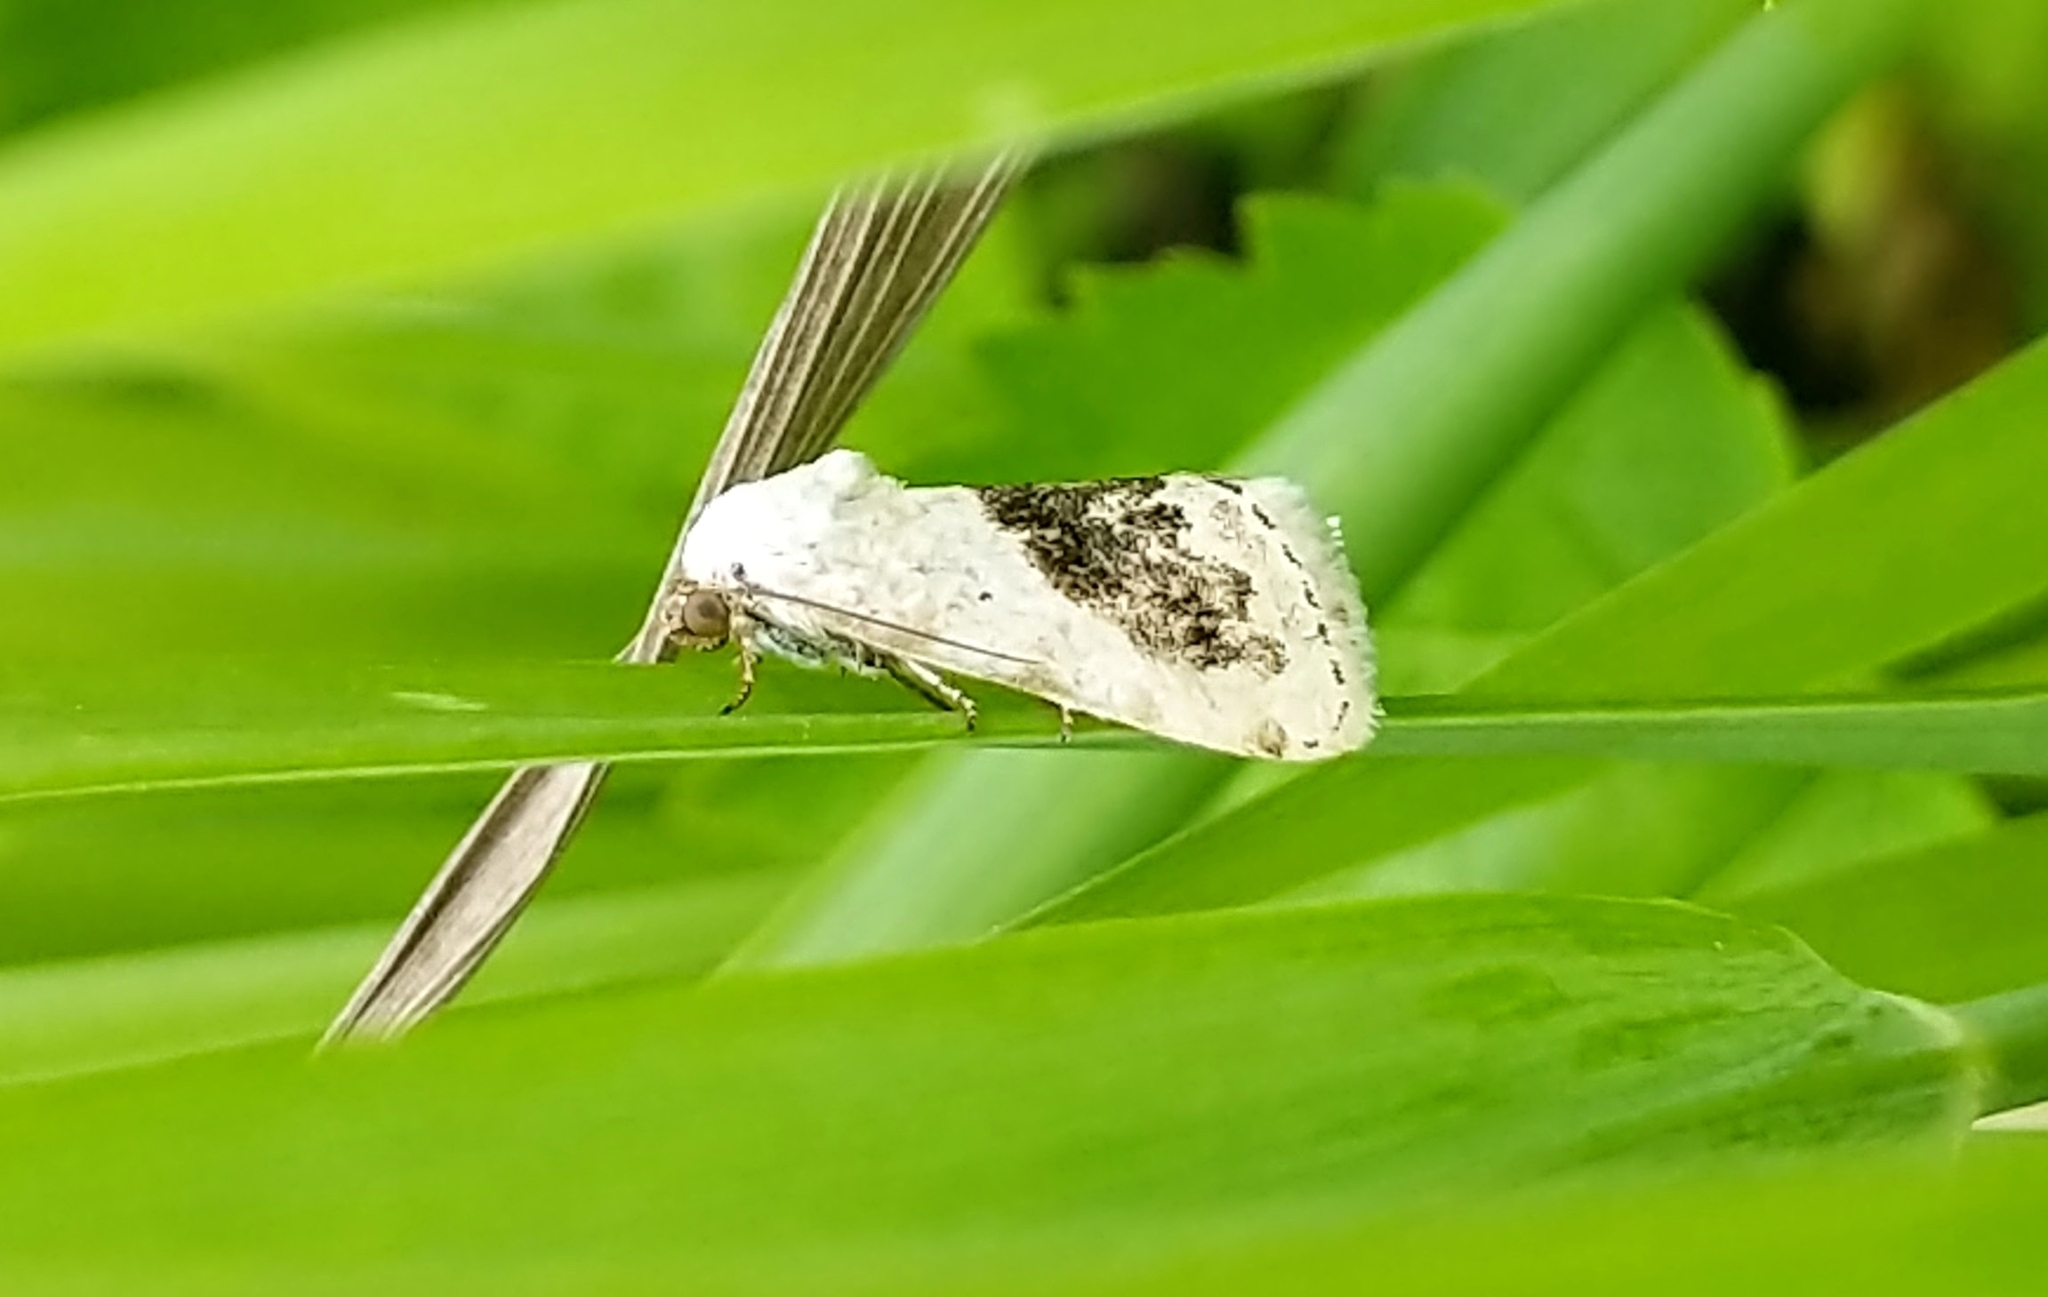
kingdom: Animalia
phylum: Arthropoda
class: Insecta
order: Lepidoptera
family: Noctuidae
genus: Acontia
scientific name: Acontia erastrioides
